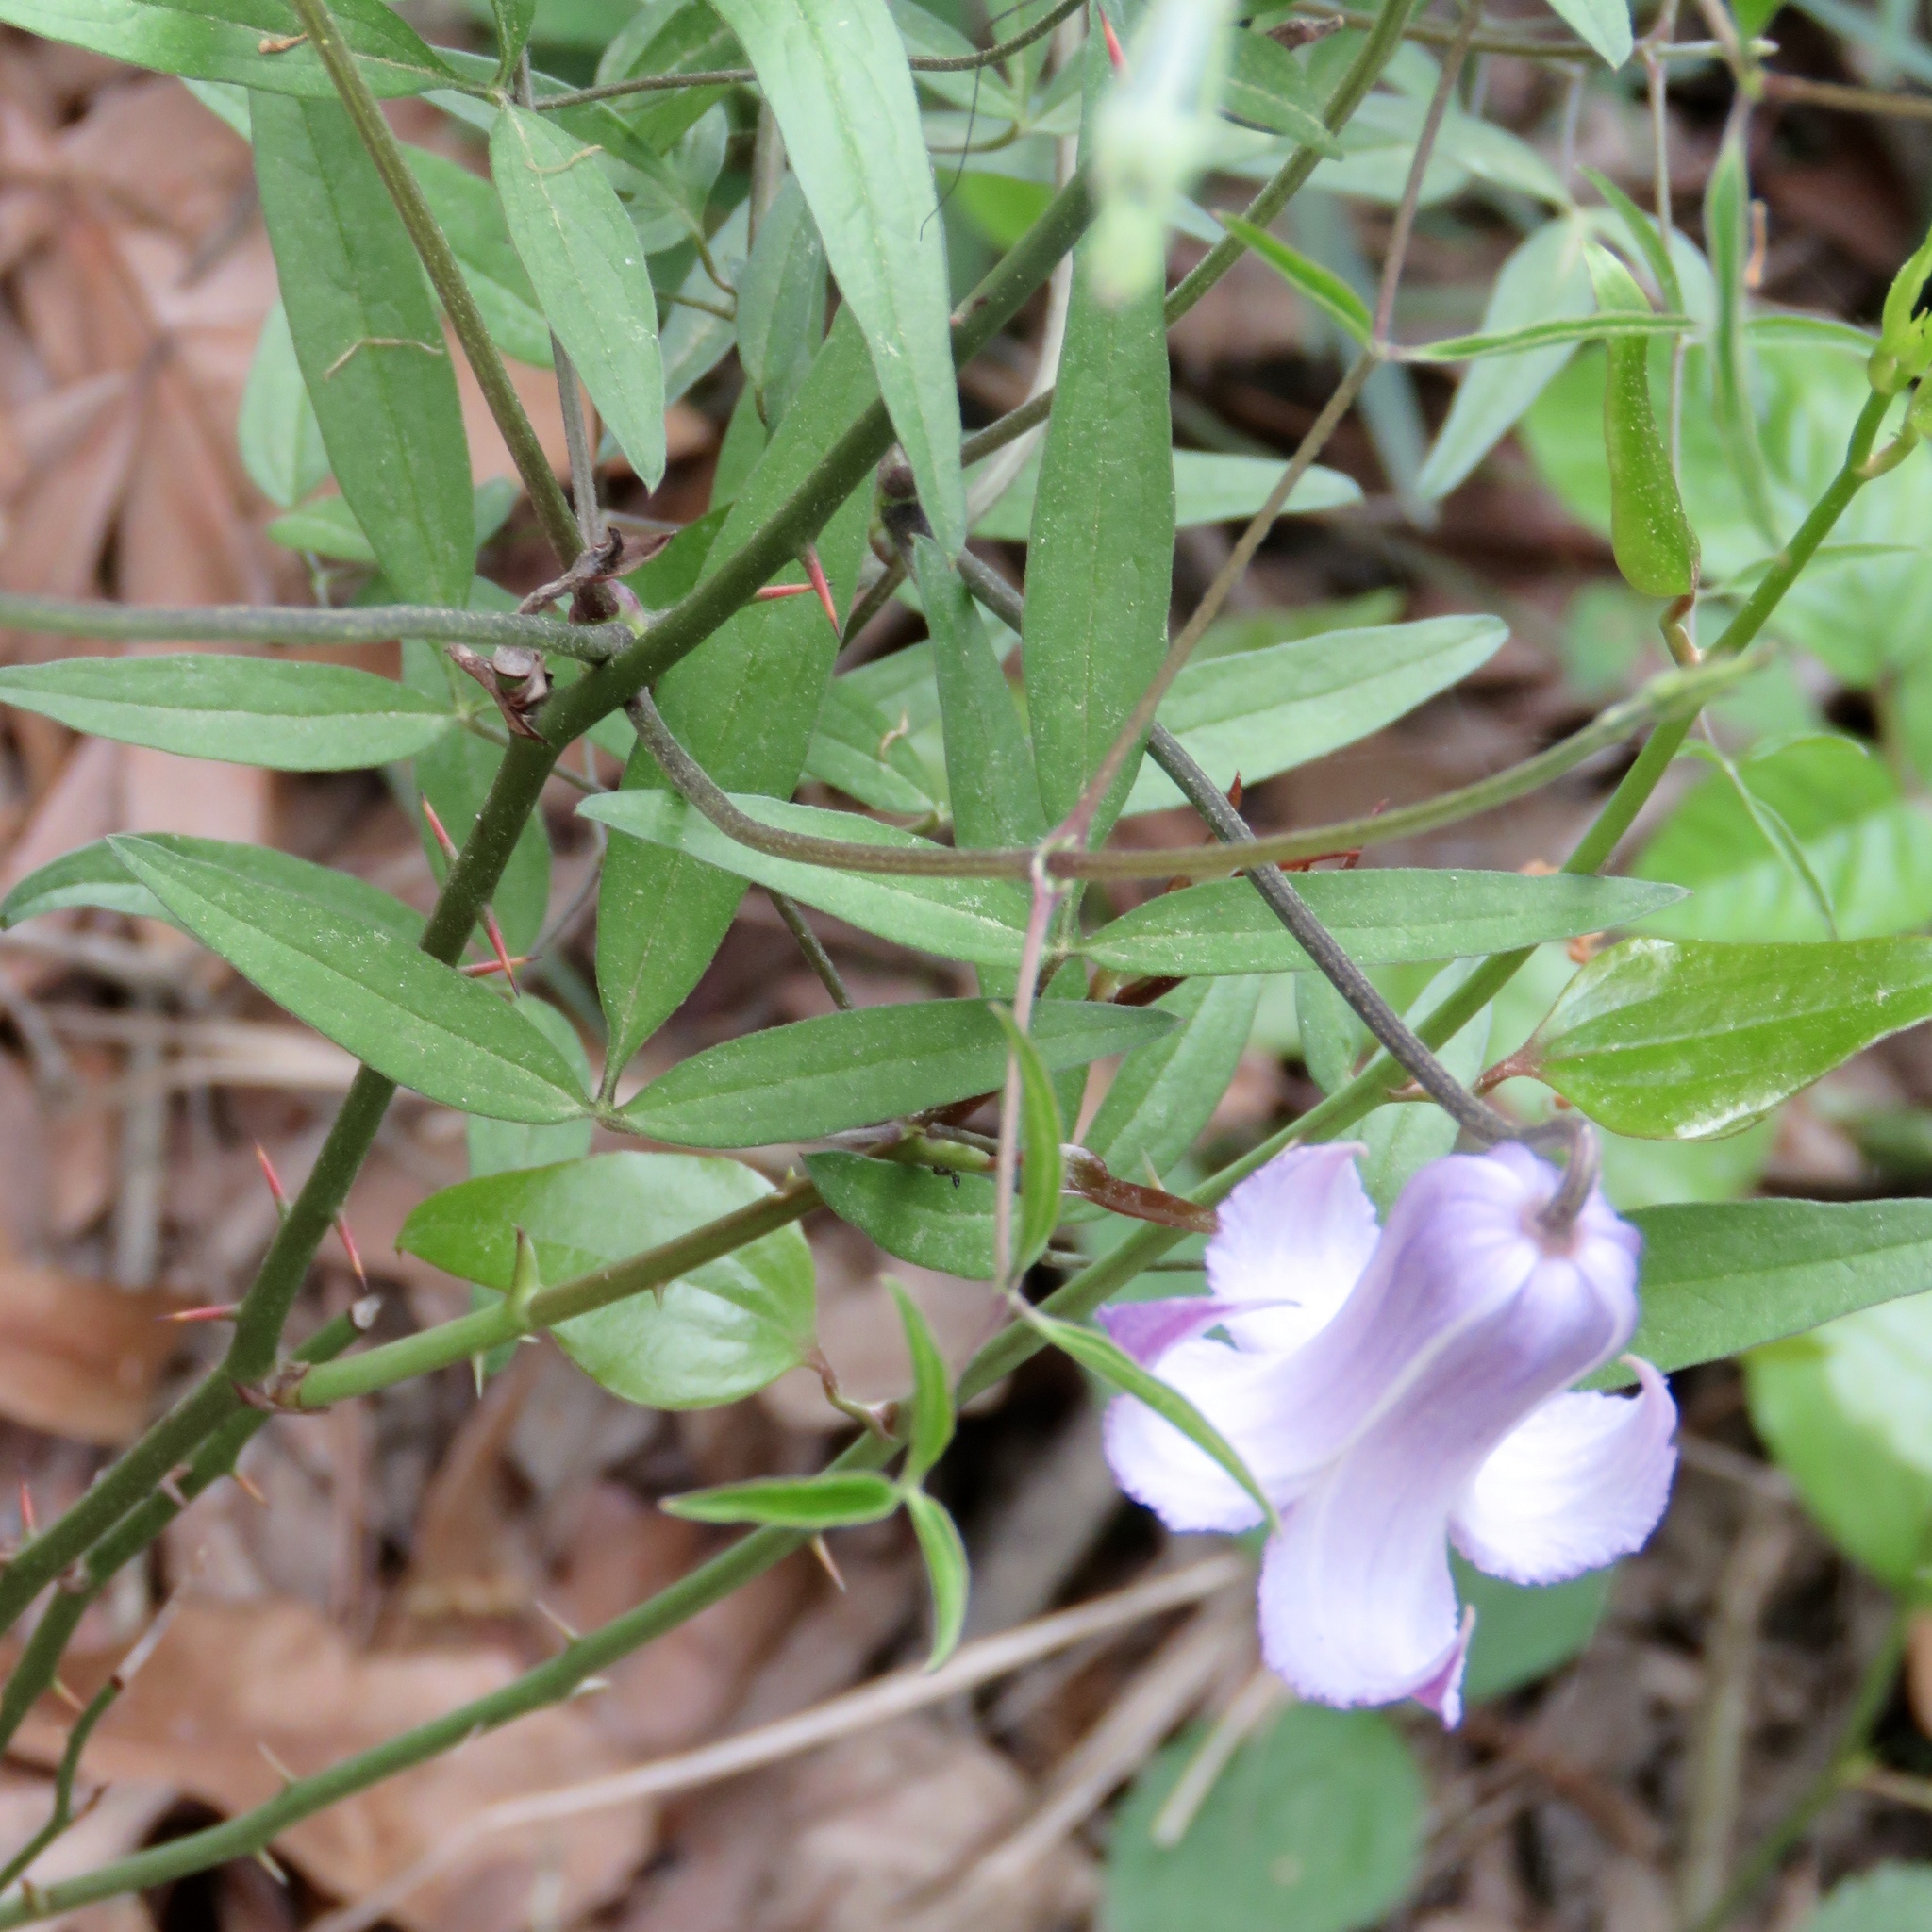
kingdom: Plantae
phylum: Tracheophyta
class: Magnoliopsida
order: Ranunculales
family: Ranunculaceae
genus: Clematis
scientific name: Clematis crispa
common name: Curly clematis
